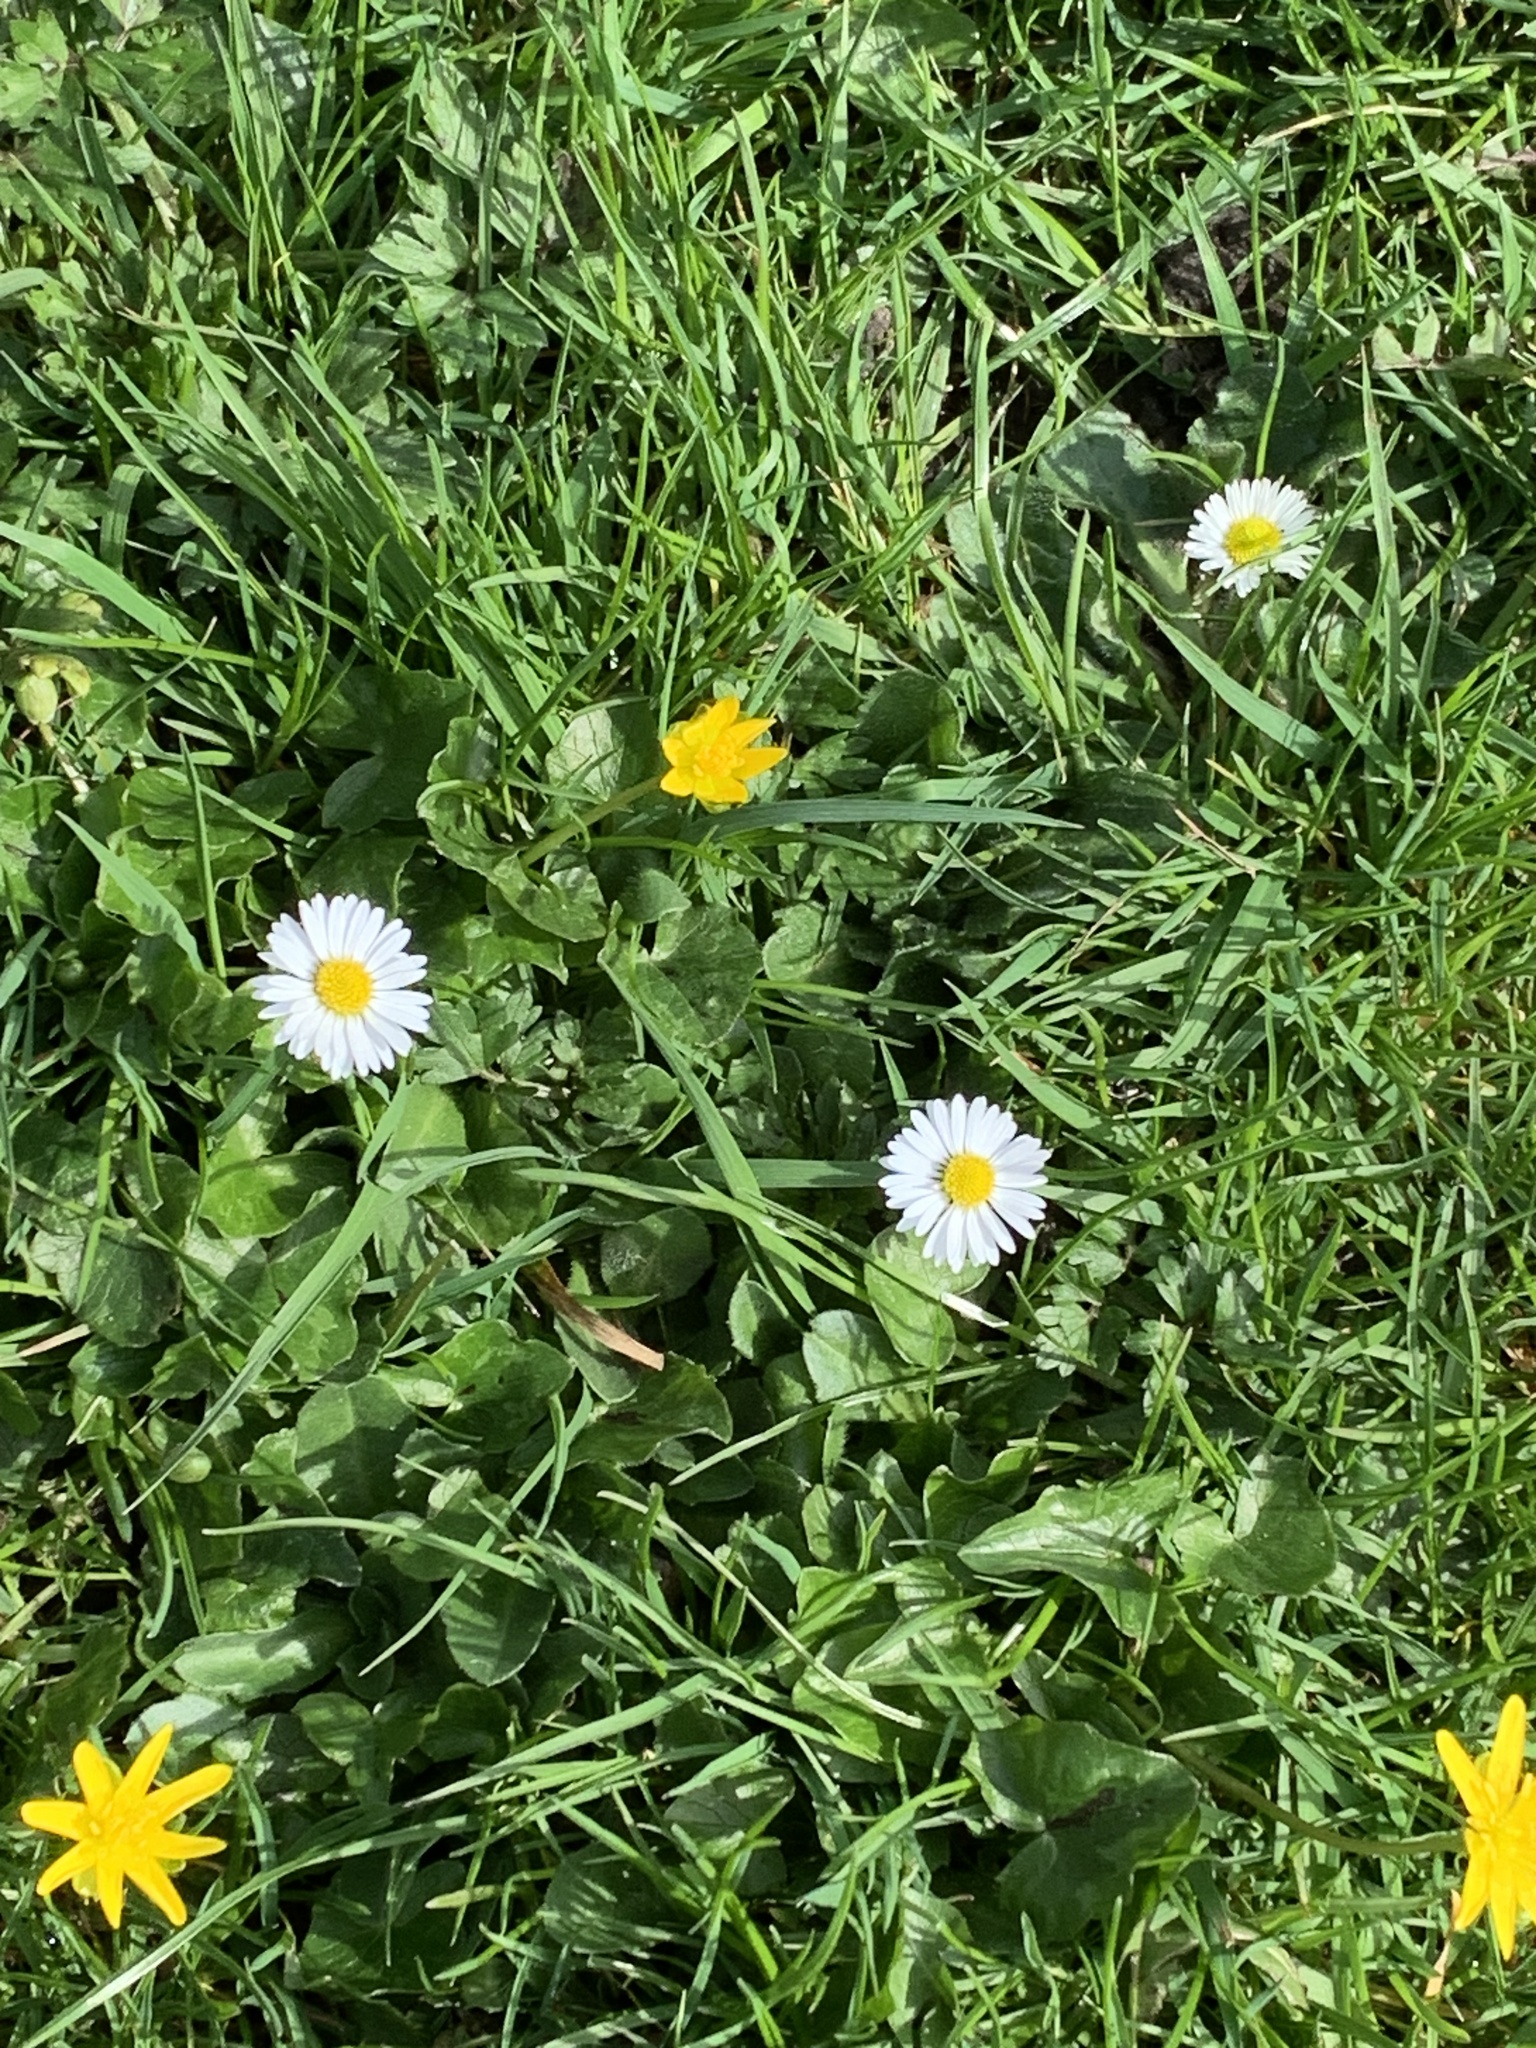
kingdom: Plantae
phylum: Tracheophyta
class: Magnoliopsida
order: Asterales
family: Asteraceae
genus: Bellis
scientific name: Bellis perennis
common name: Lawndaisy
